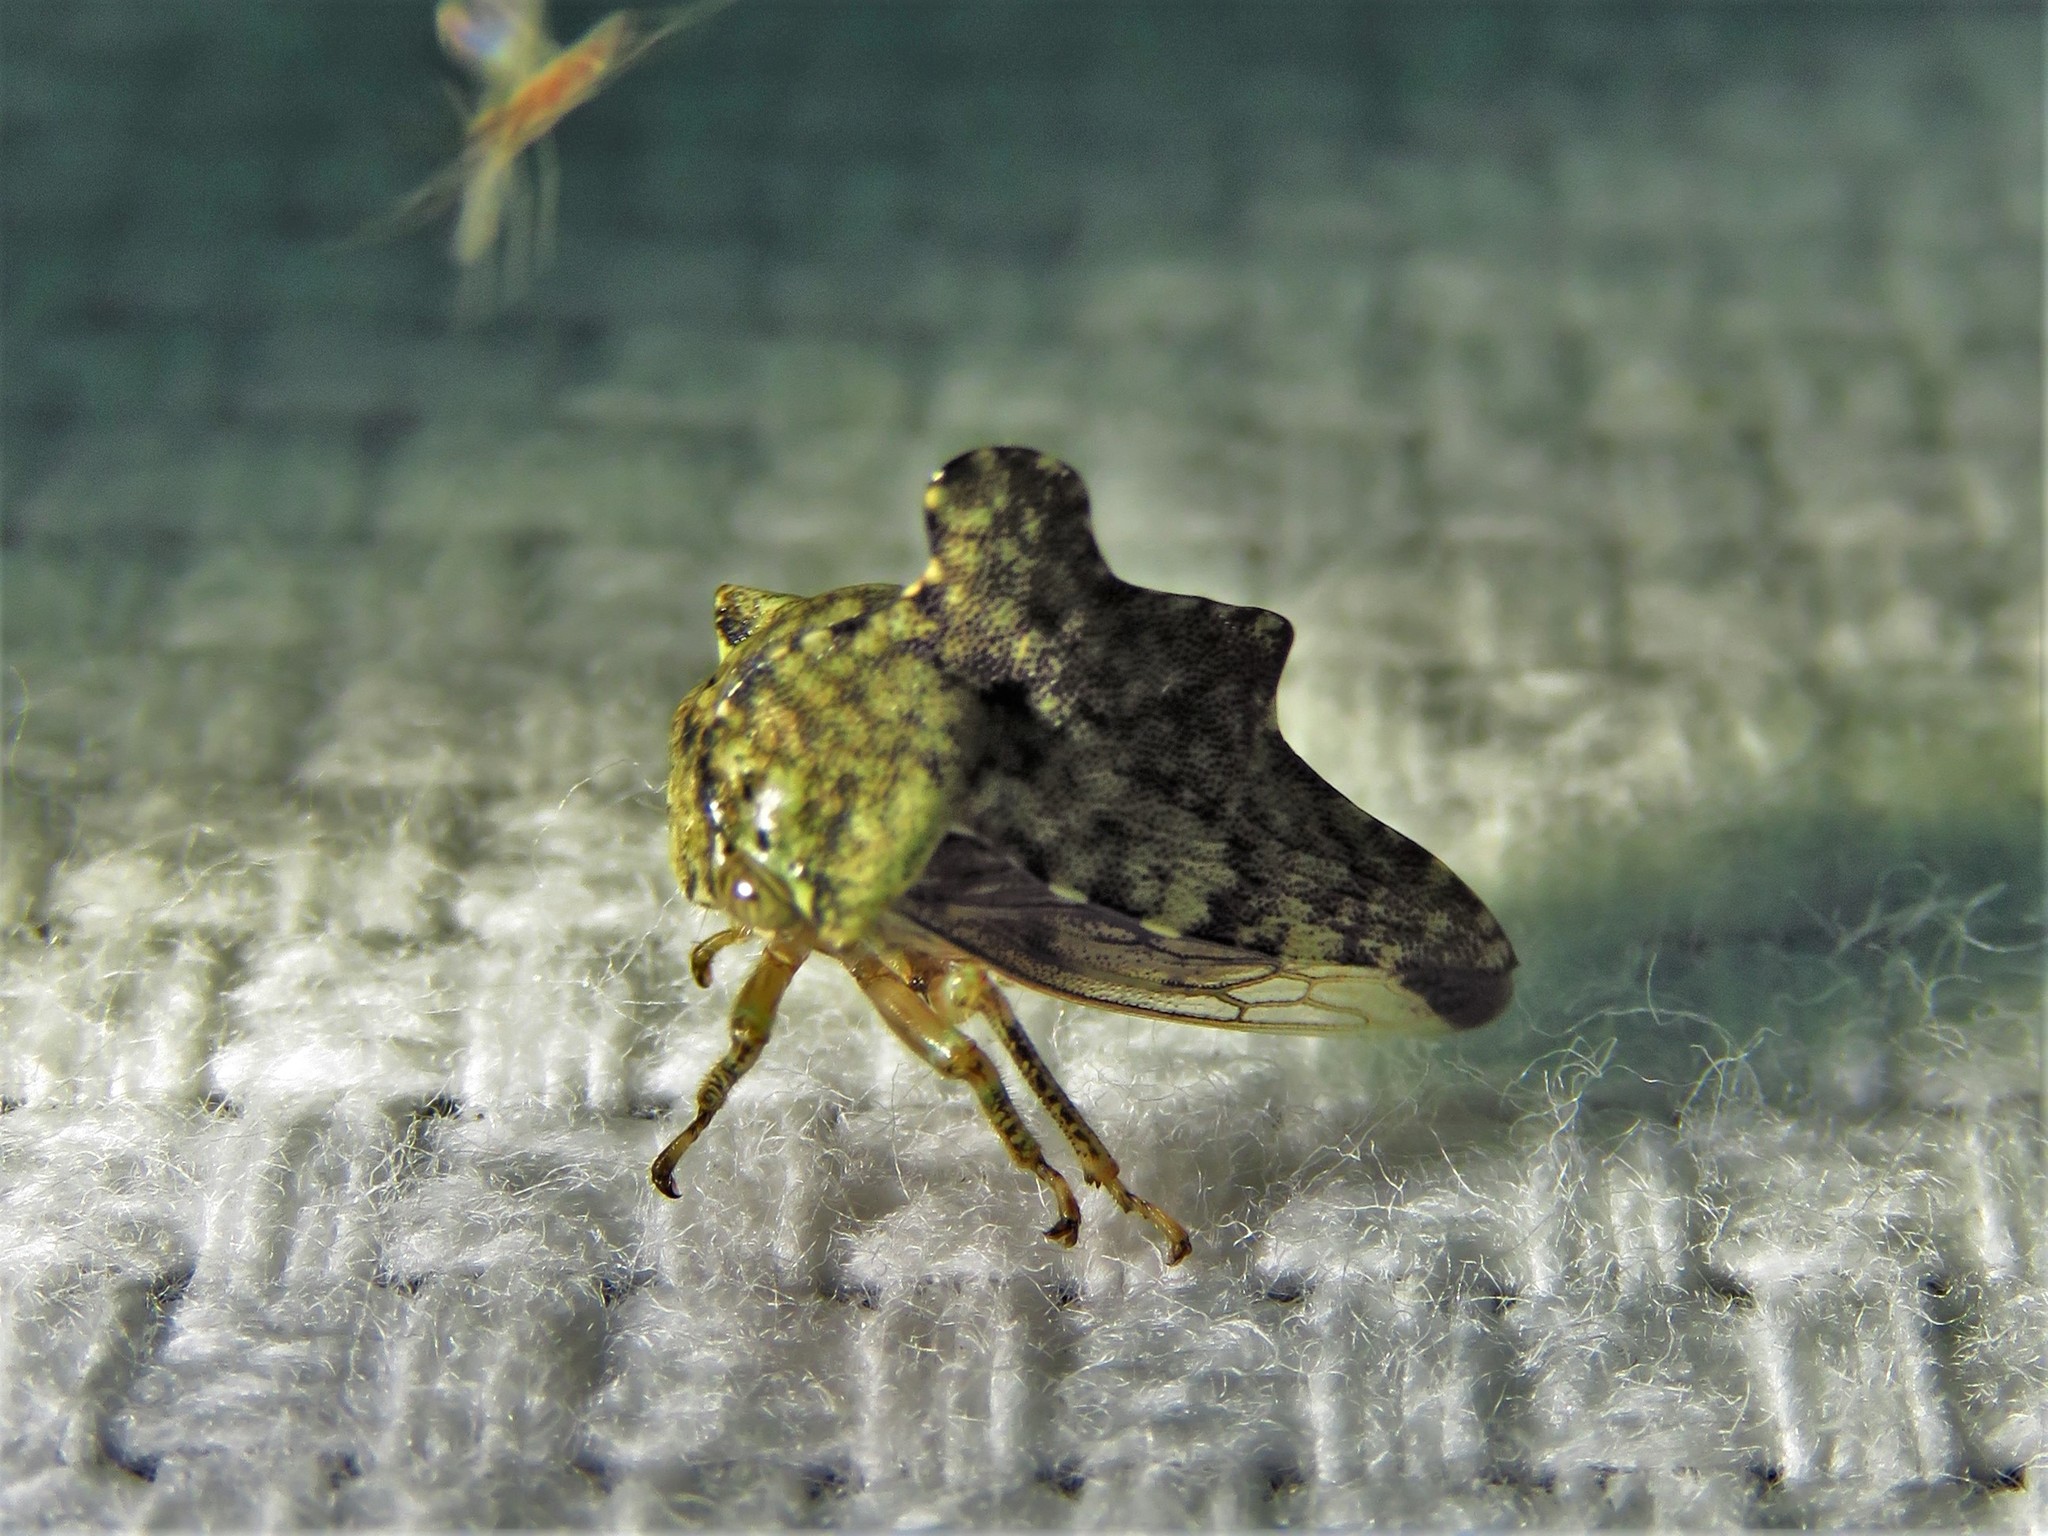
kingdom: Animalia
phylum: Arthropoda
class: Insecta
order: Hemiptera
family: Membracidae
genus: Heliria
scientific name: Heliria cristata
